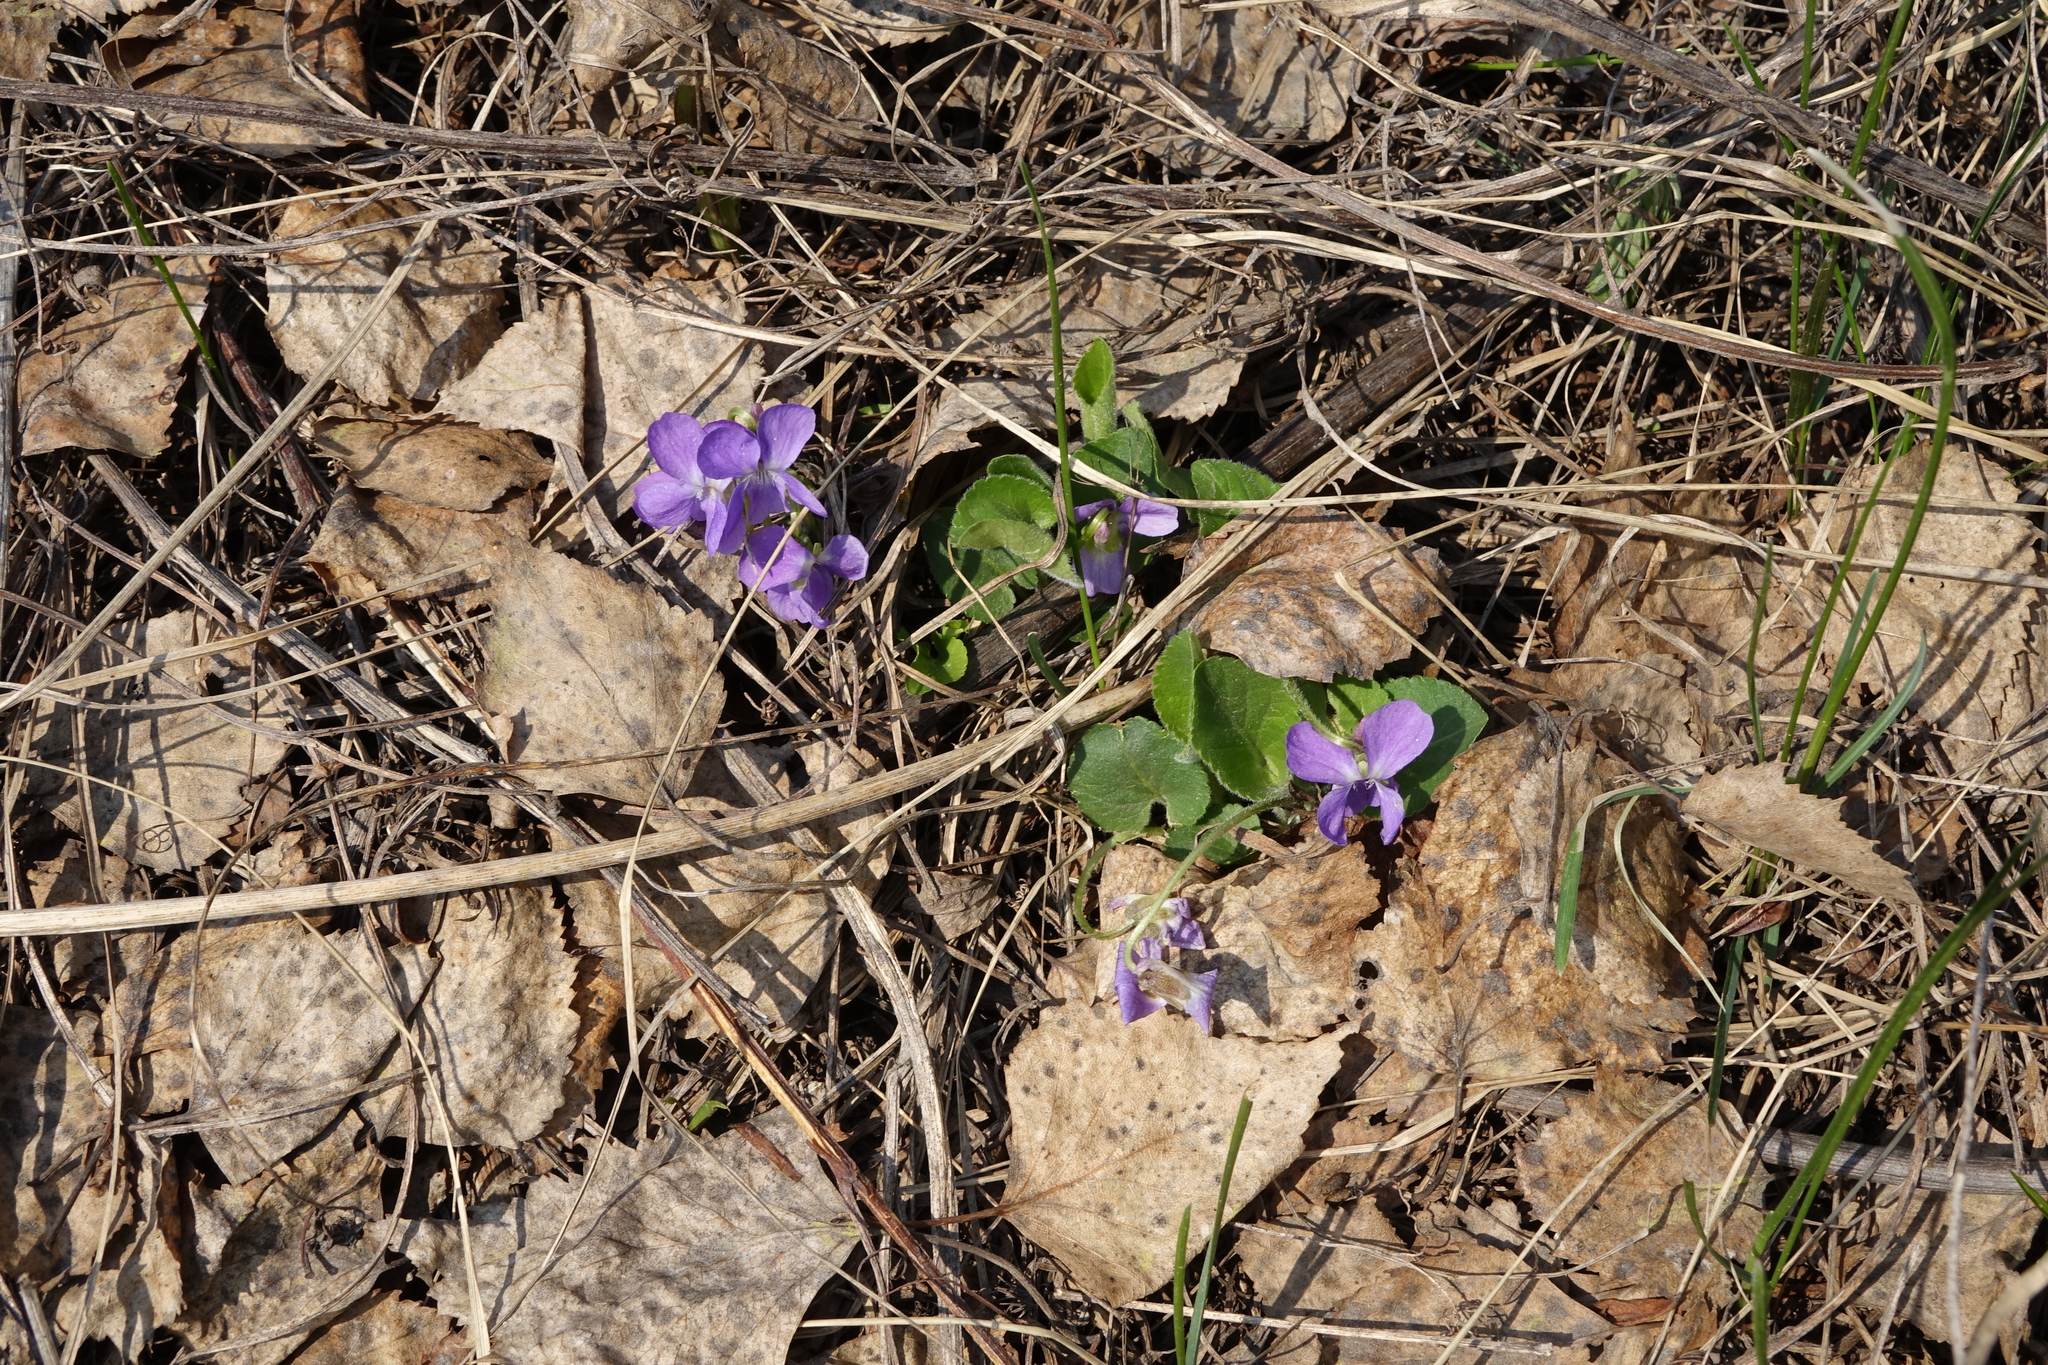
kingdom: Plantae
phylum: Tracheophyta
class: Magnoliopsida
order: Malpighiales
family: Violaceae
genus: Viola
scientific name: Viola hirta
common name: Hairy violet
